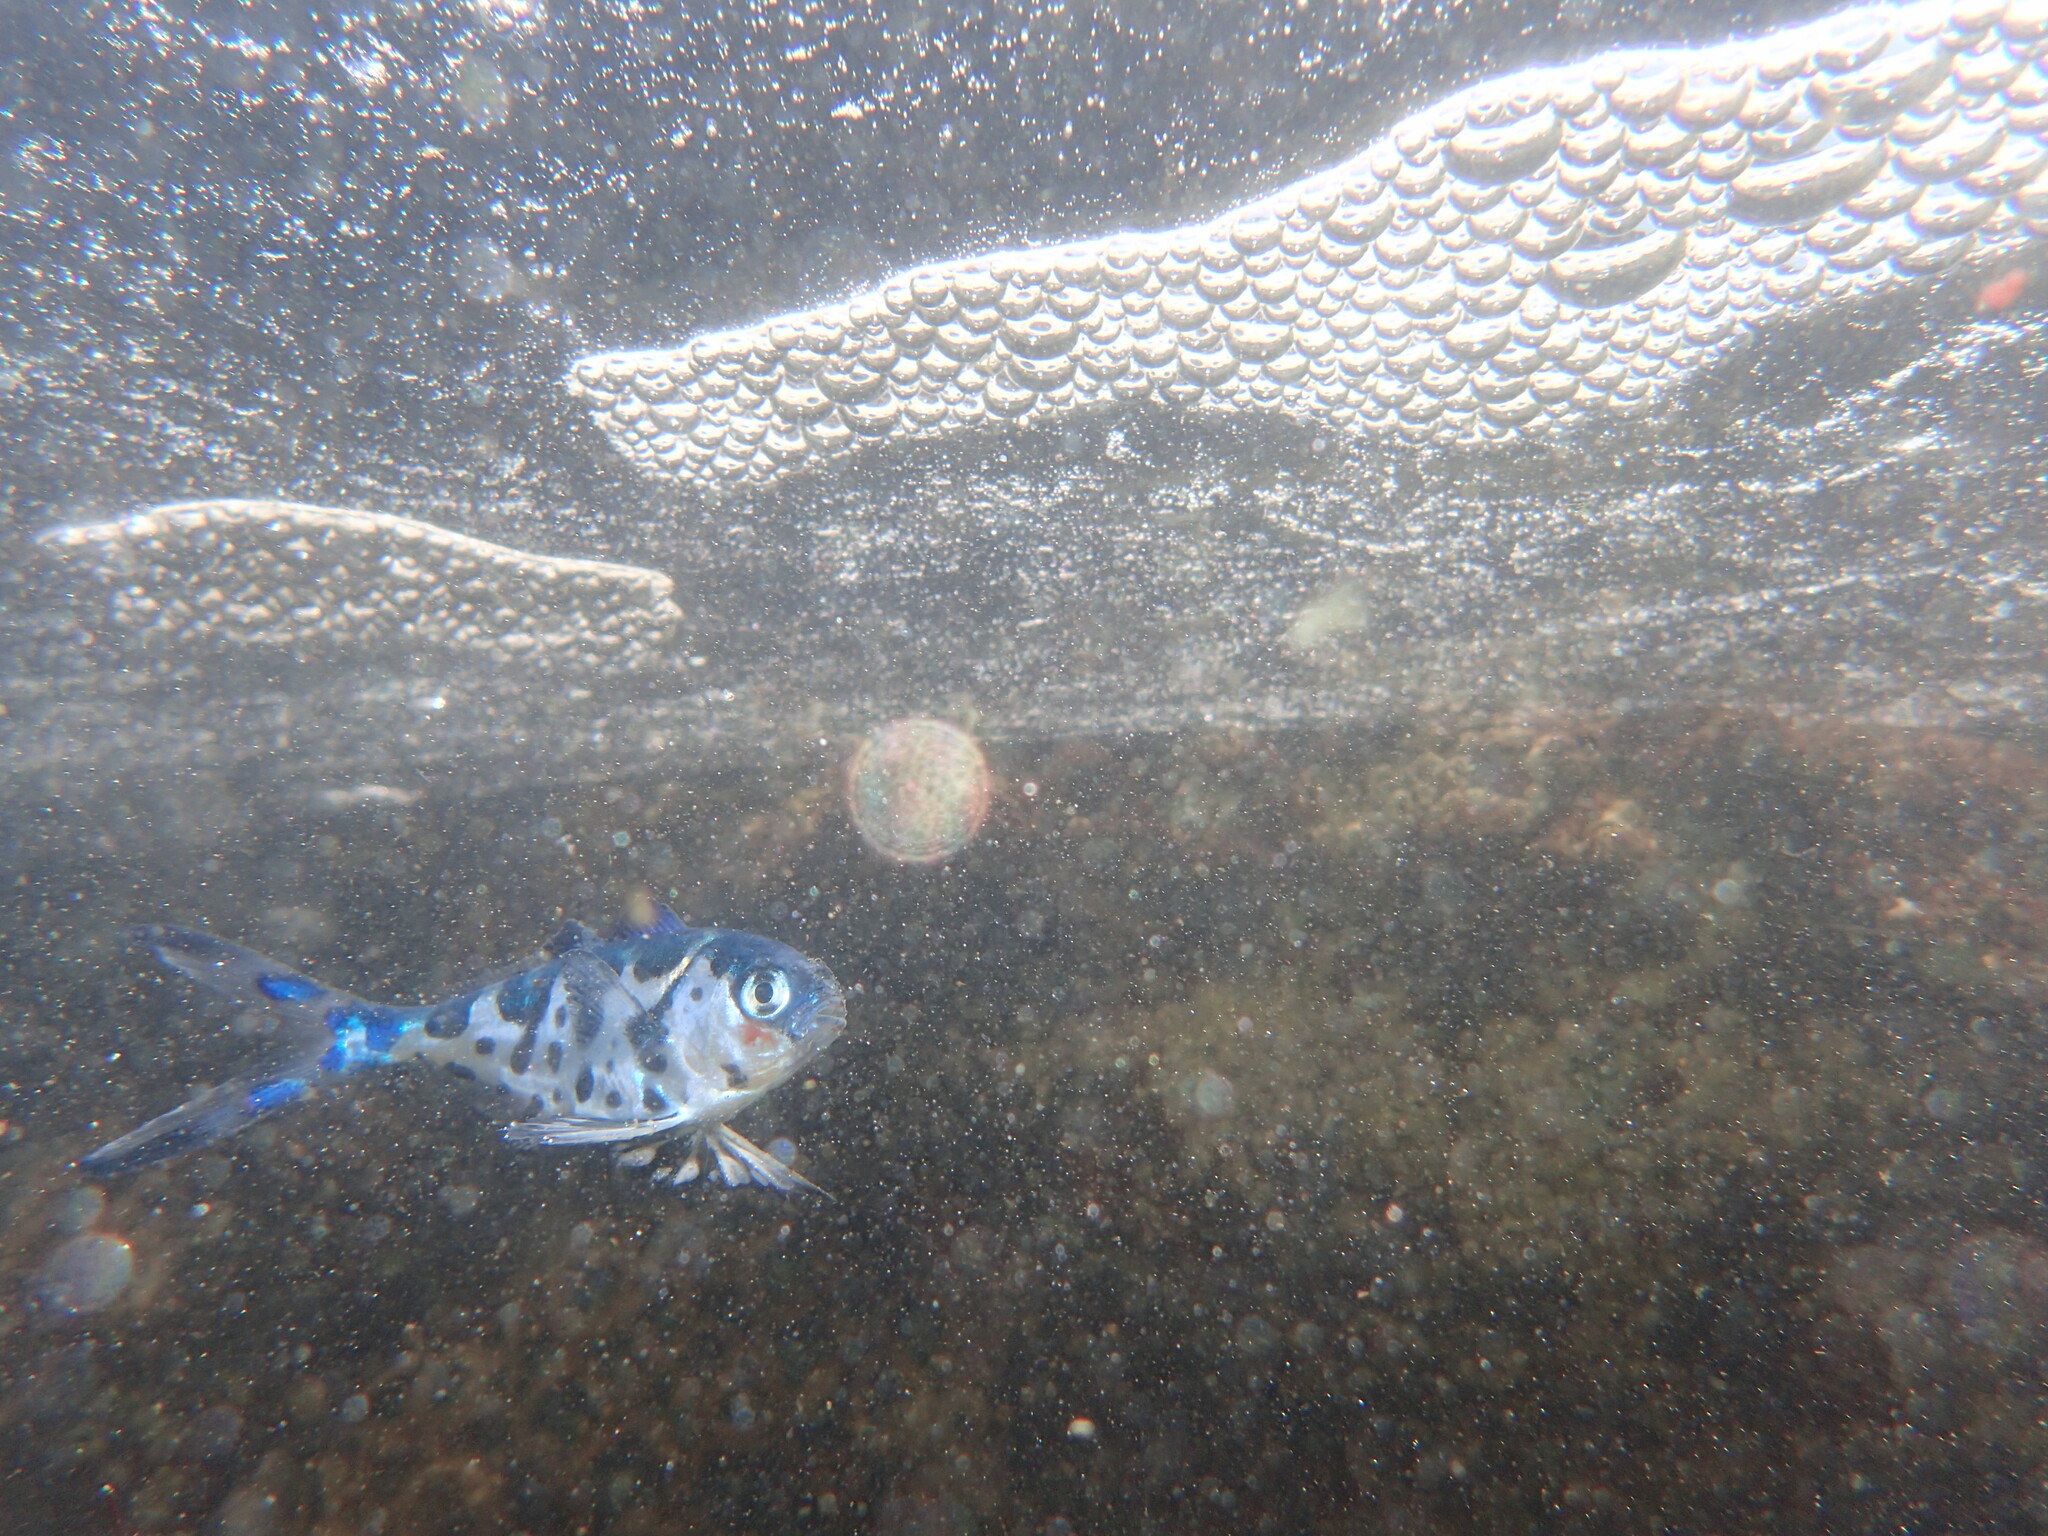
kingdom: Animalia
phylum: Chordata
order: Perciformes
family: Nomeidae
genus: Nomeus
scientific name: Nomeus gronovii
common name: Man-of-war fish
